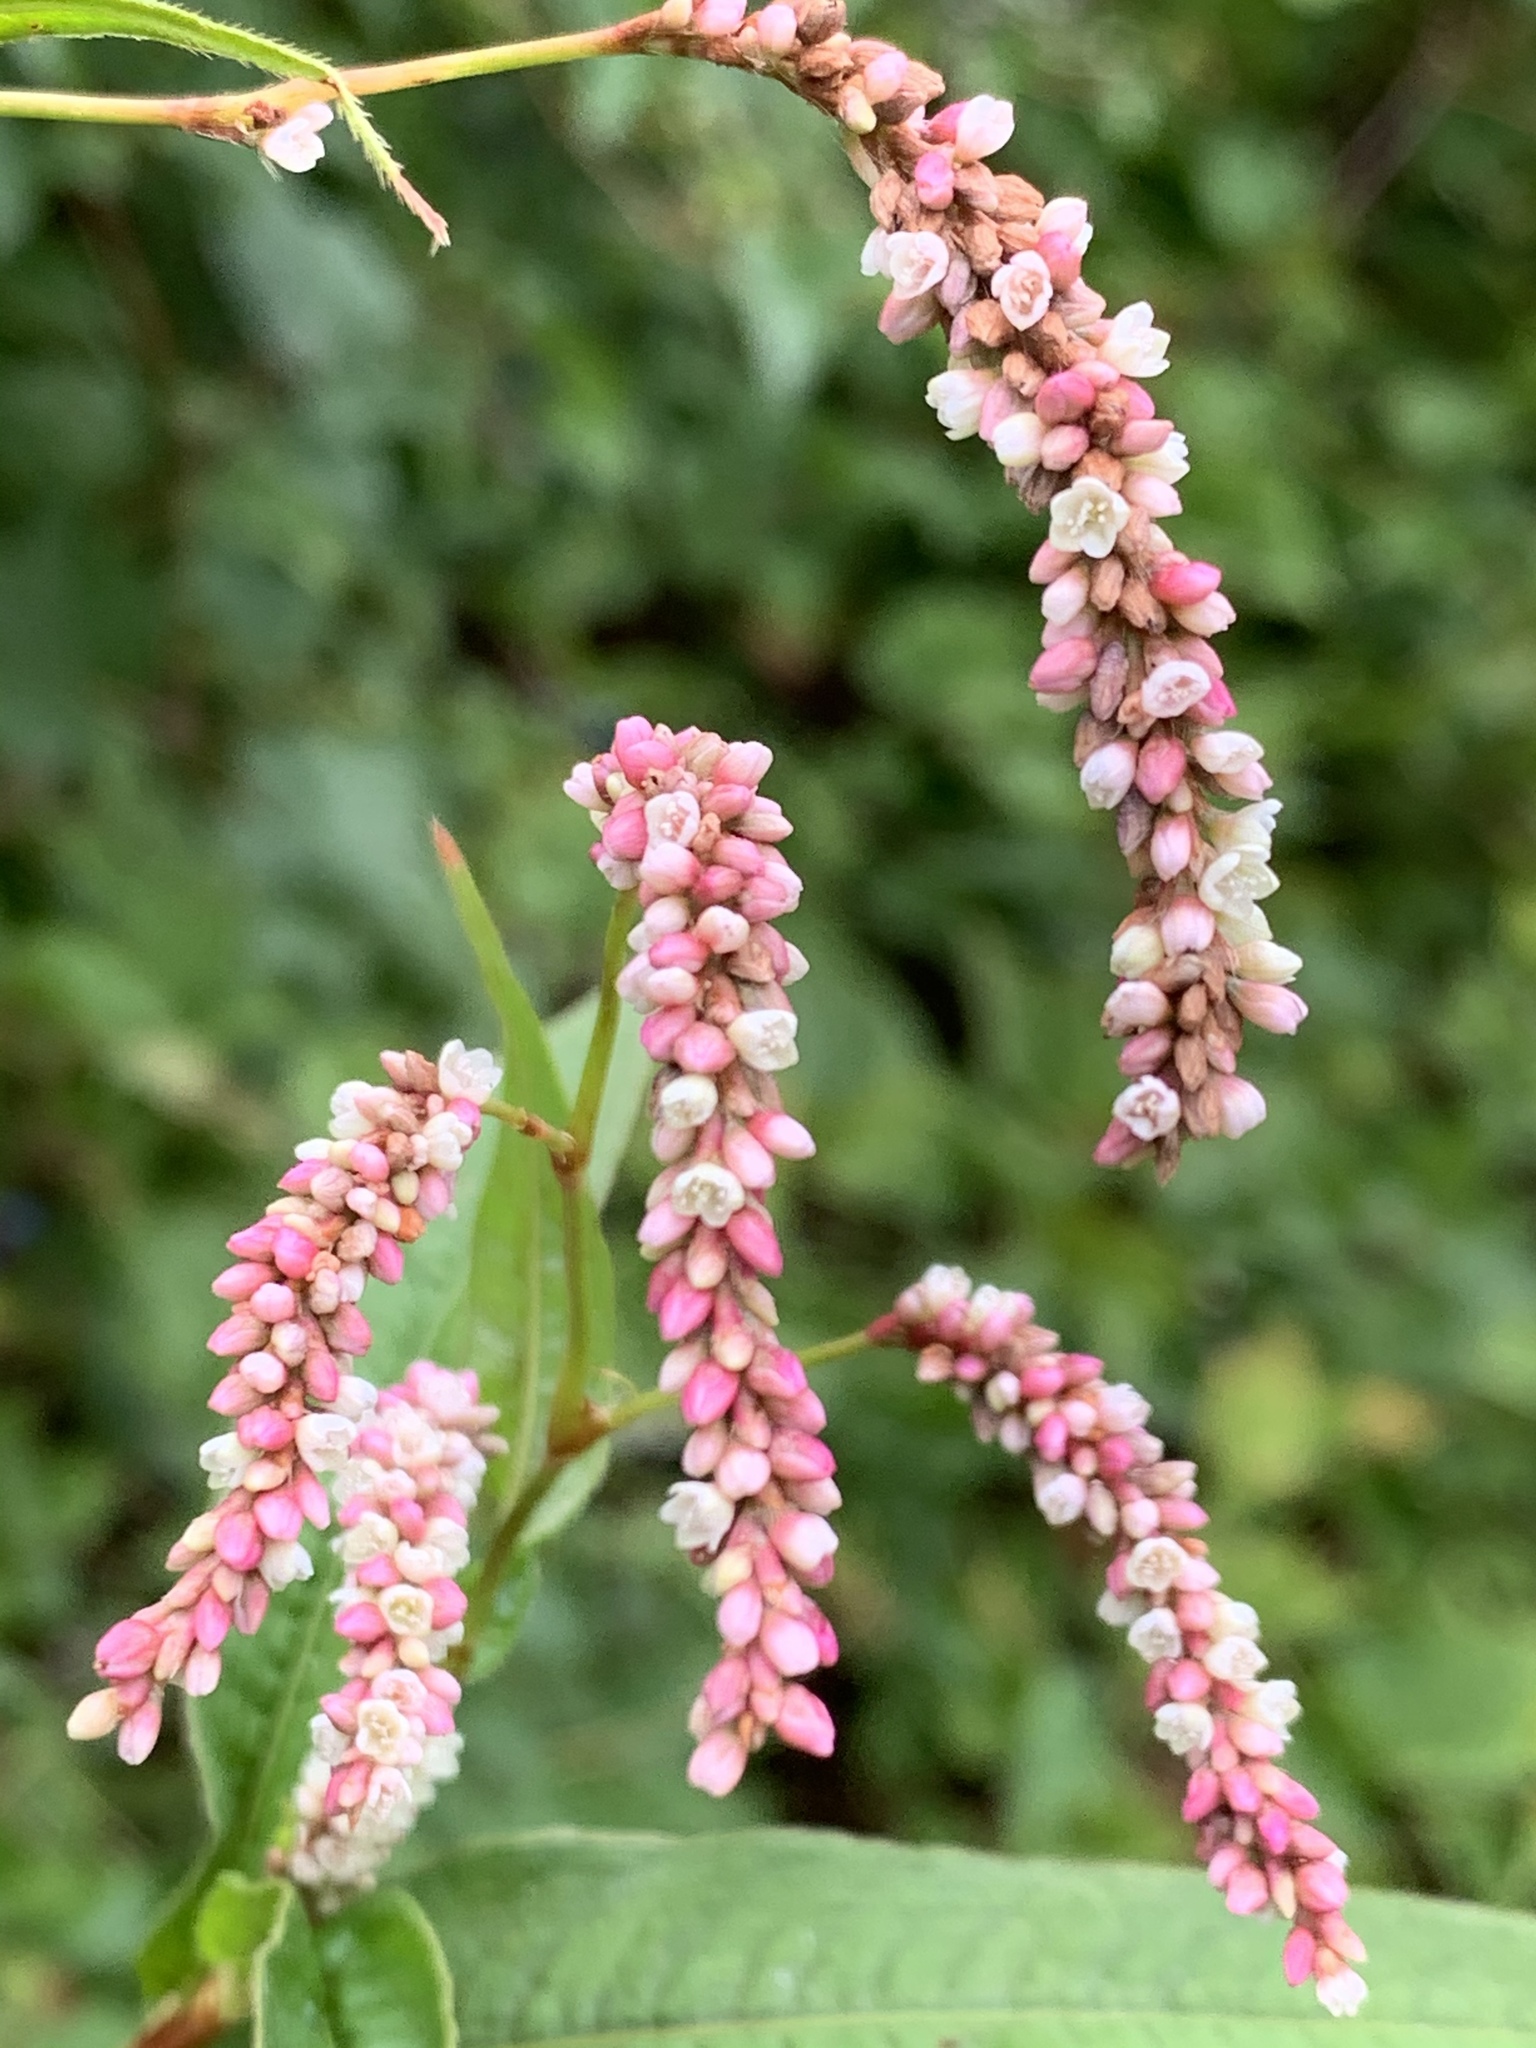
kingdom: Plantae
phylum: Tracheophyta
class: Magnoliopsida
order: Caryophyllales
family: Polygonaceae
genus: Persicaria
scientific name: Persicaria lapathifolia
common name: Curlytop knotweed
